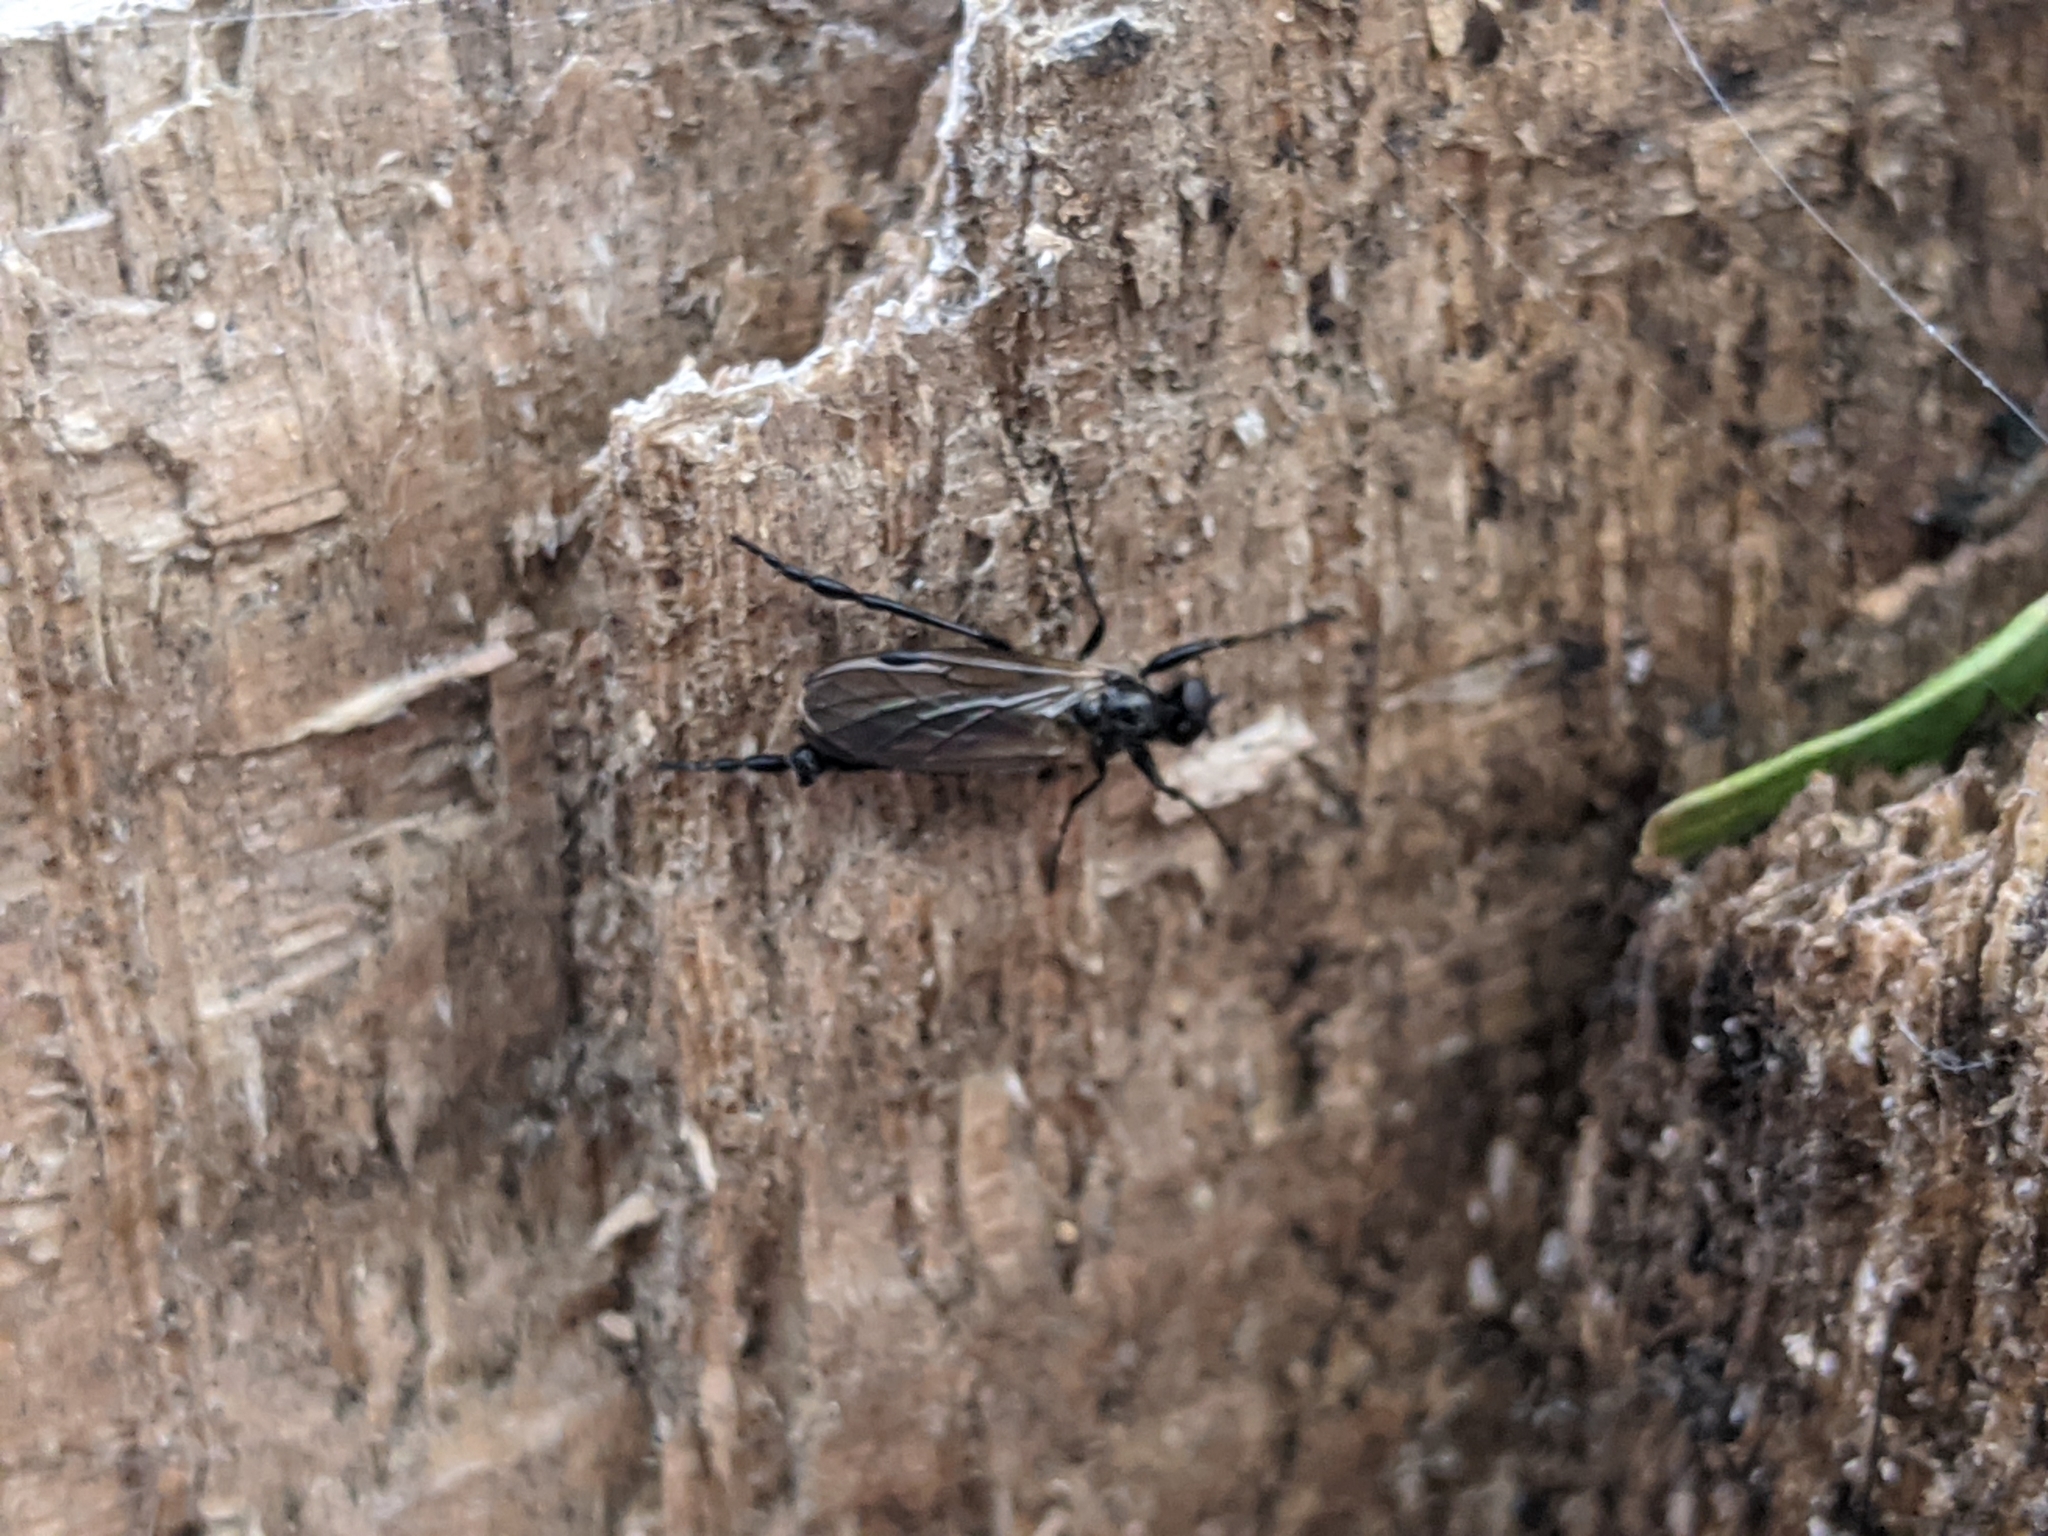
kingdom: Animalia
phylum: Arthropoda
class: Insecta
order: Diptera
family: Bibionidae
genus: Bibio
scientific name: Bibio longipes
